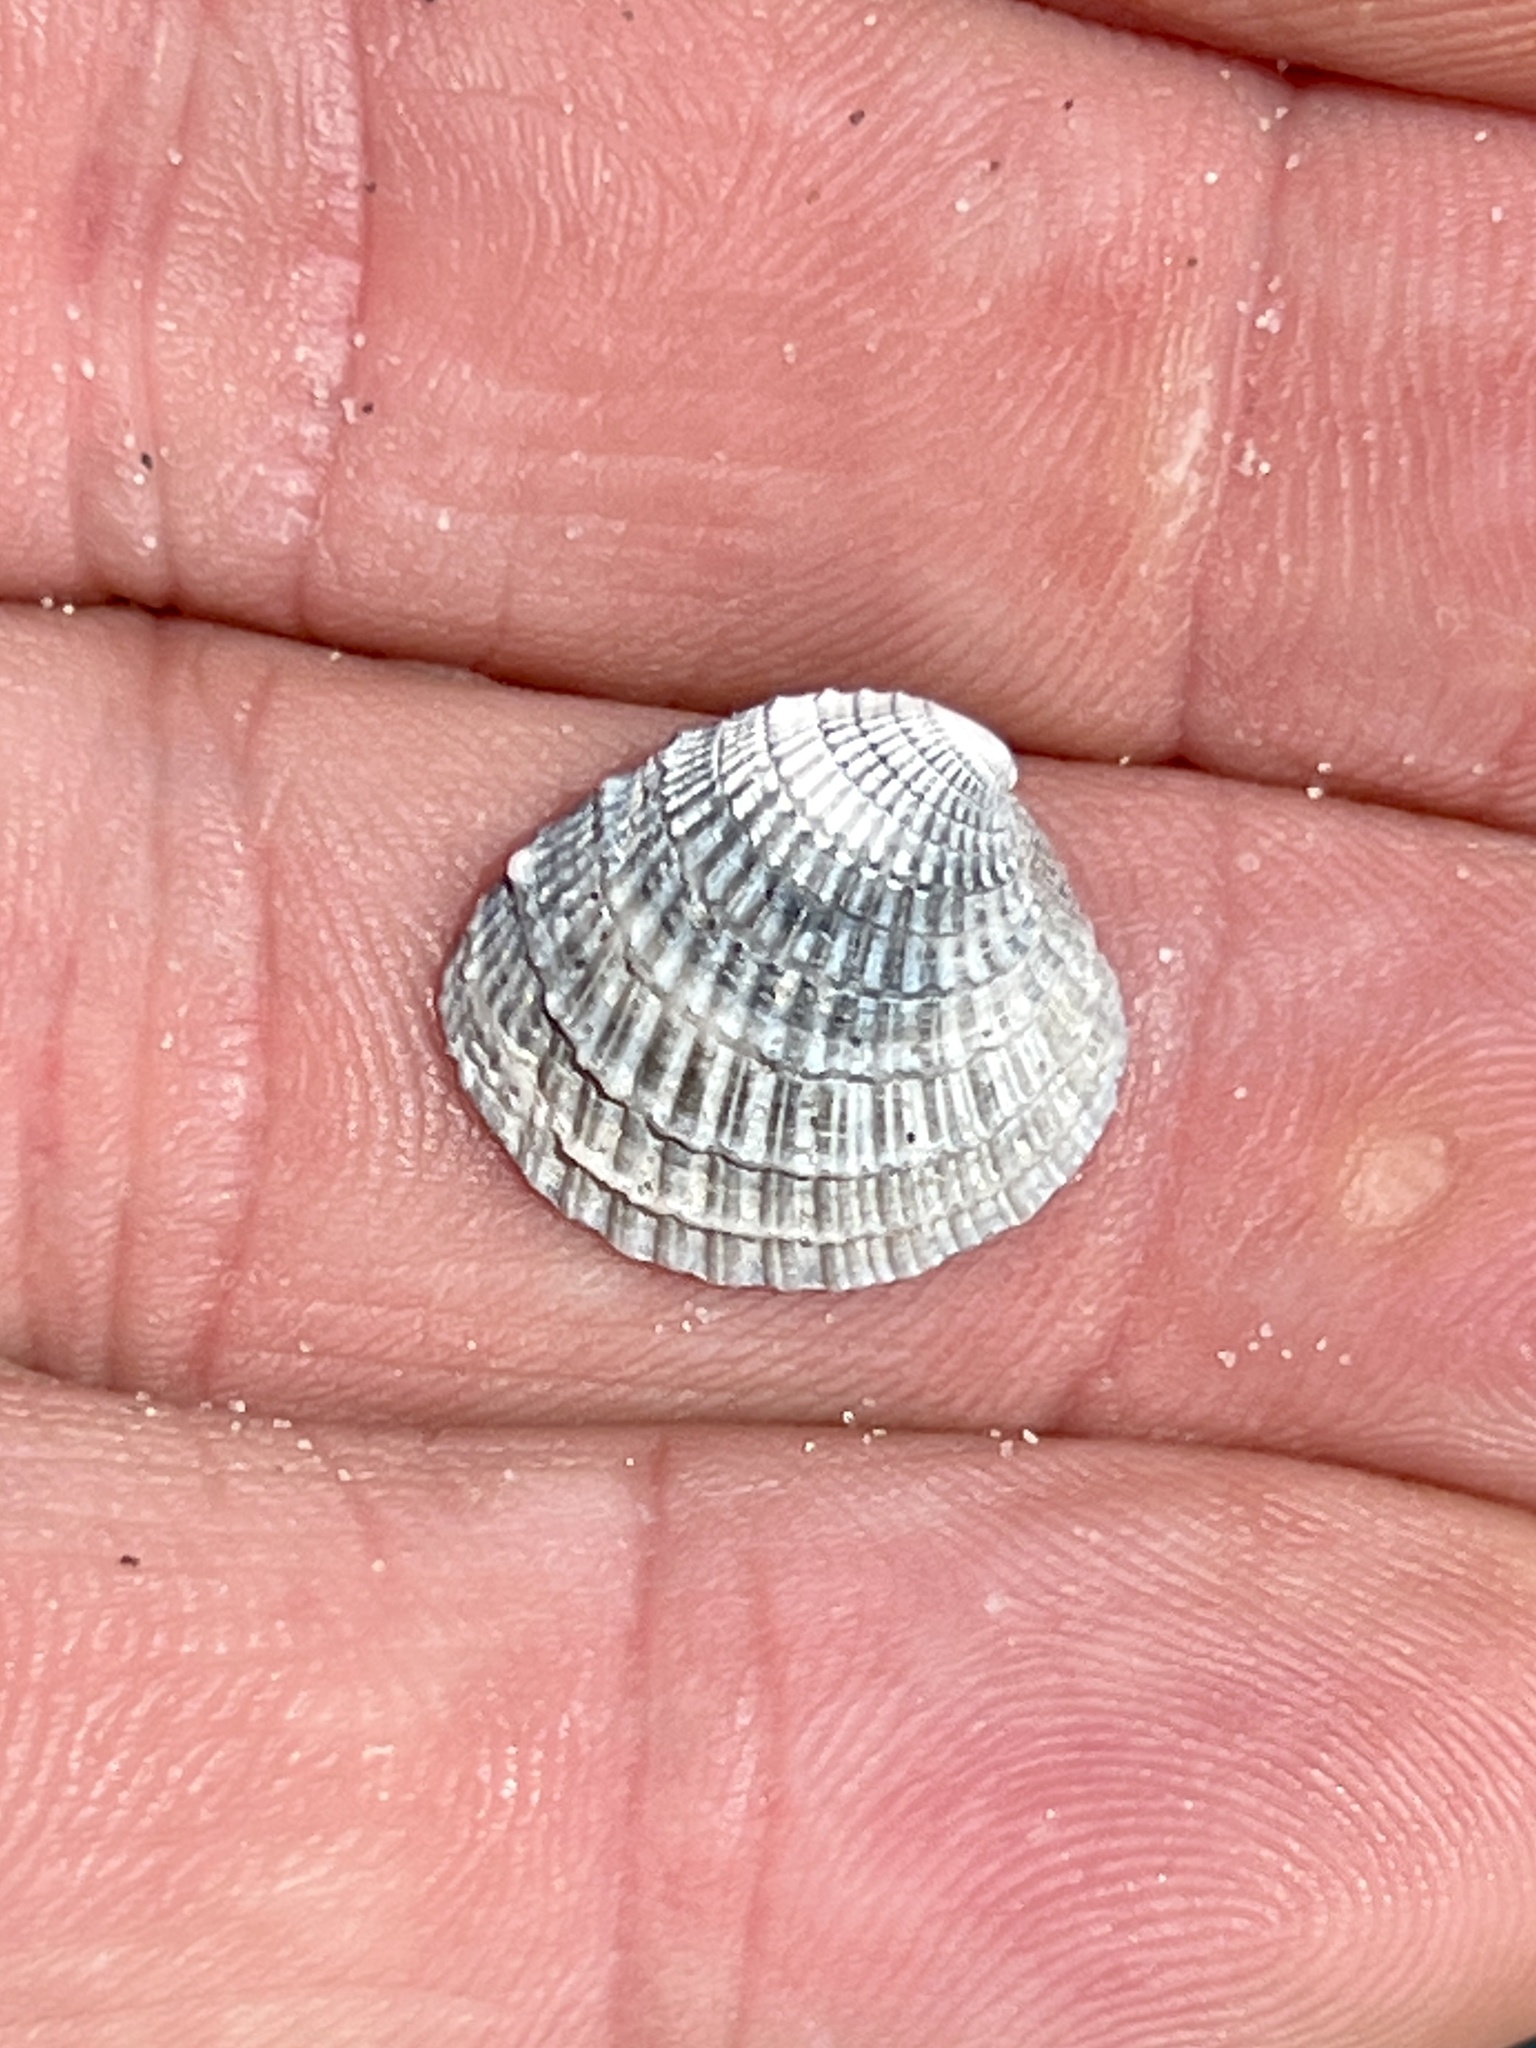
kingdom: Animalia
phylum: Mollusca
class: Bivalvia
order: Venerida
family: Veneridae
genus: Chione
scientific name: Chione elevata
